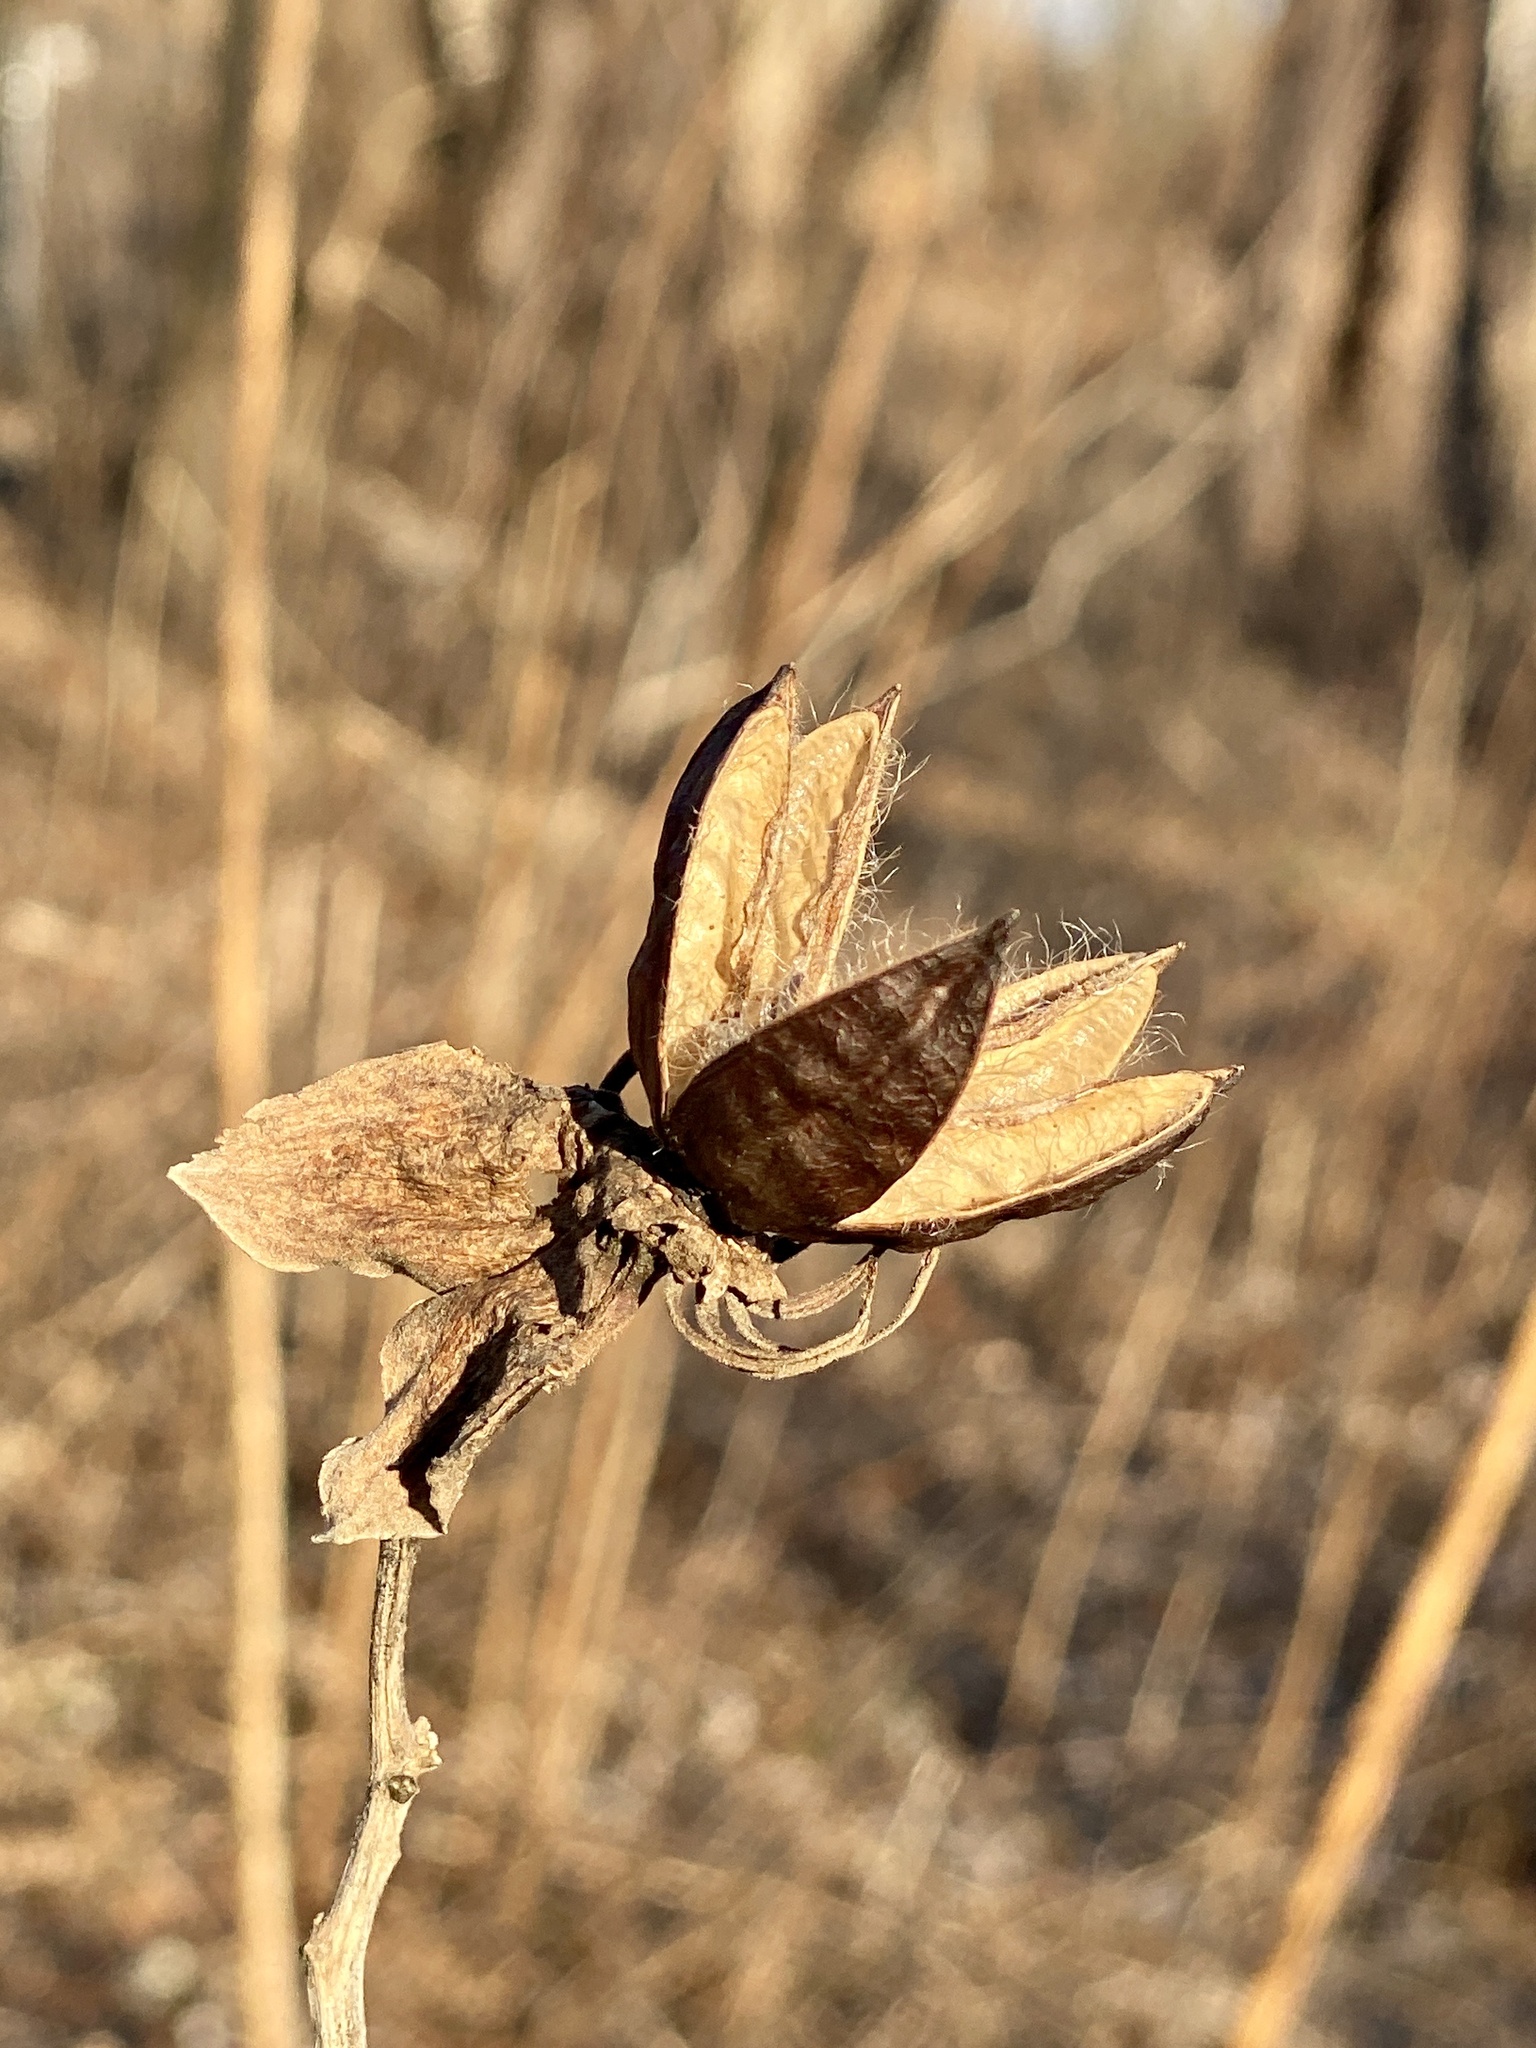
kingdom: Plantae
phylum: Tracheophyta
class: Magnoliopsida
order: Malvales
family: Malvaceae
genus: Hibiscus
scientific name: Hibiscus moscheutos
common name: Common rose-mallow
